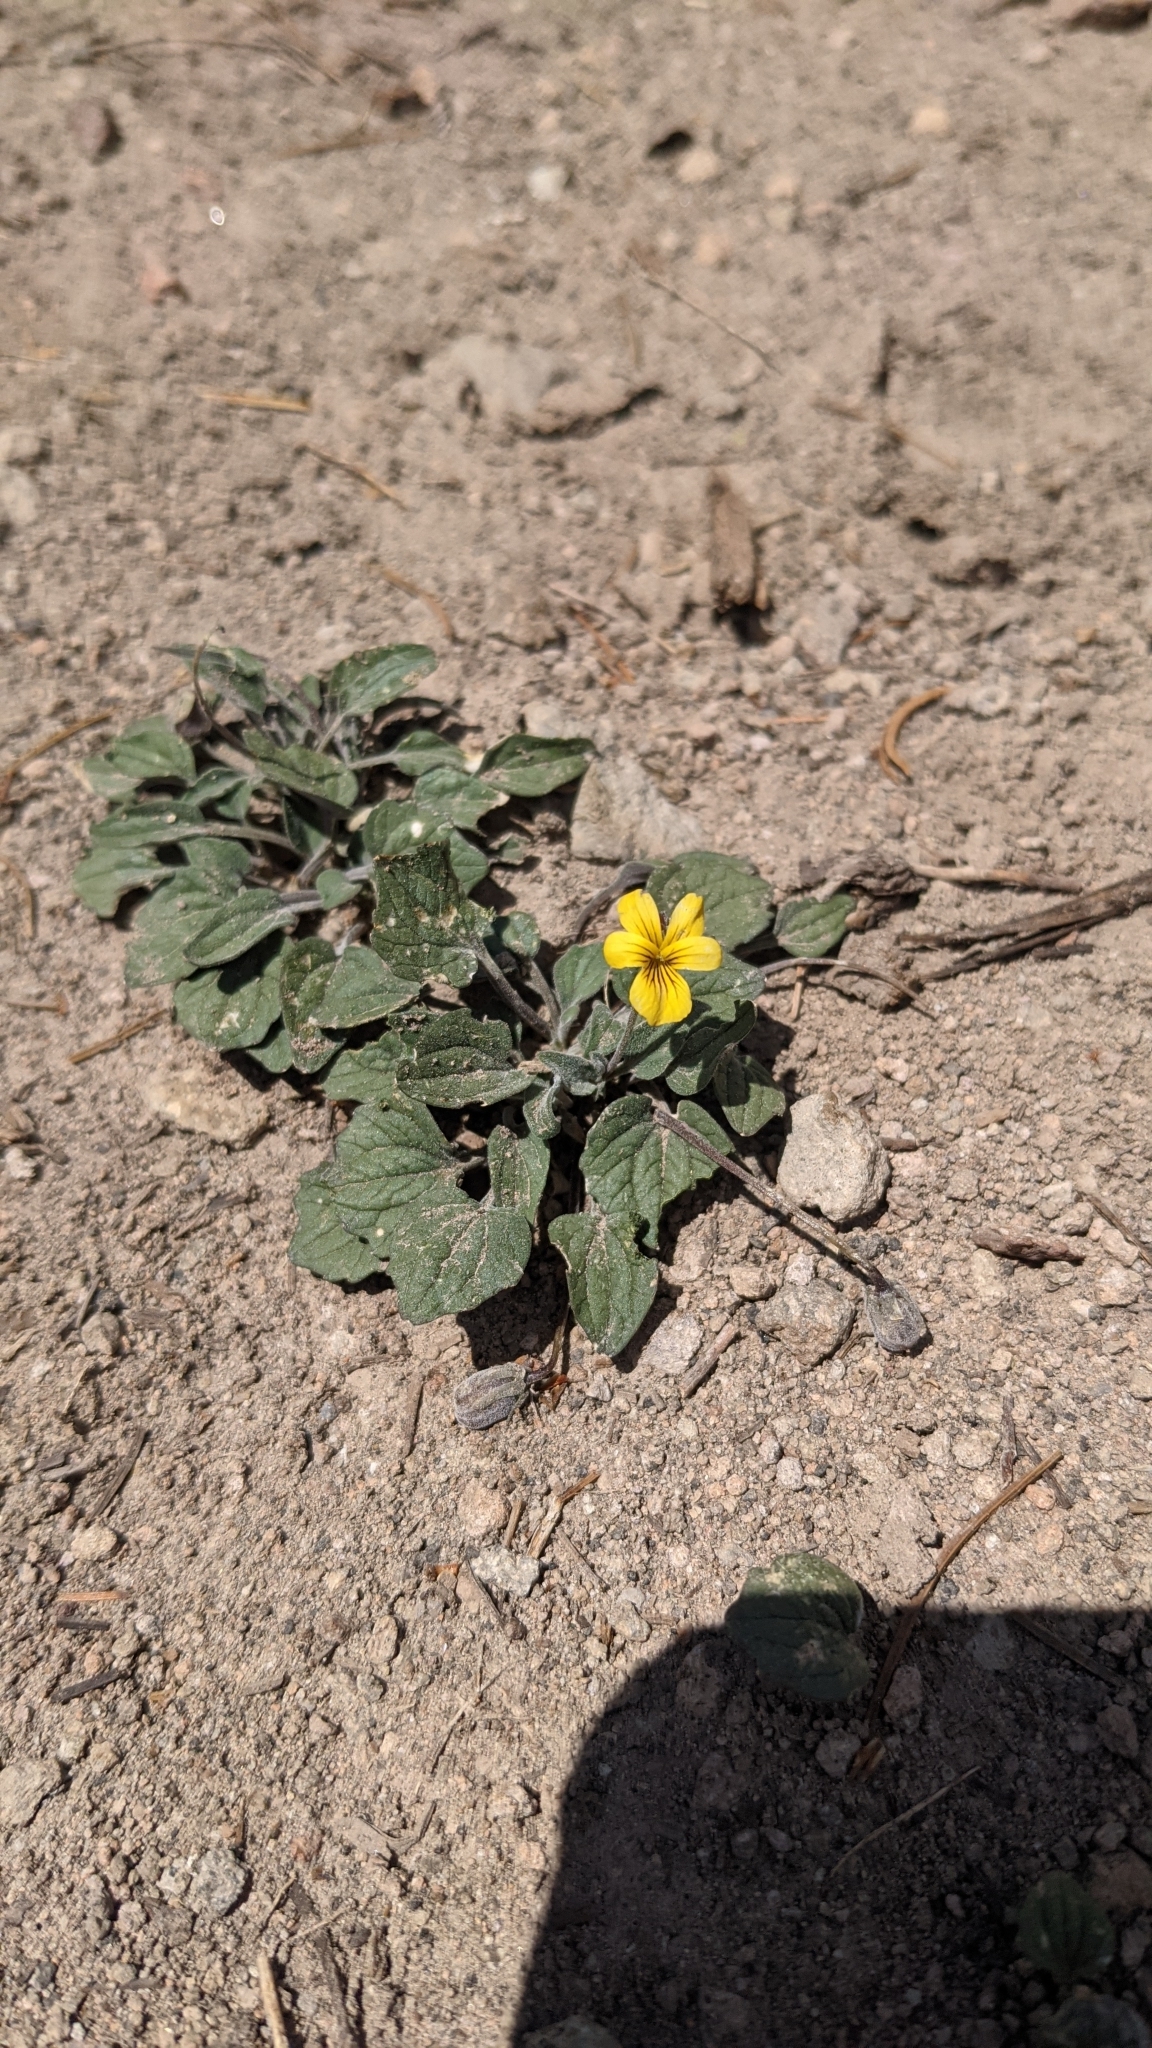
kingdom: Plantae
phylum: Tracheophyta
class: Magnoliopsida
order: Malpighiales
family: Violaceae
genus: Viola
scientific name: Viola purpurea
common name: Pine violet
